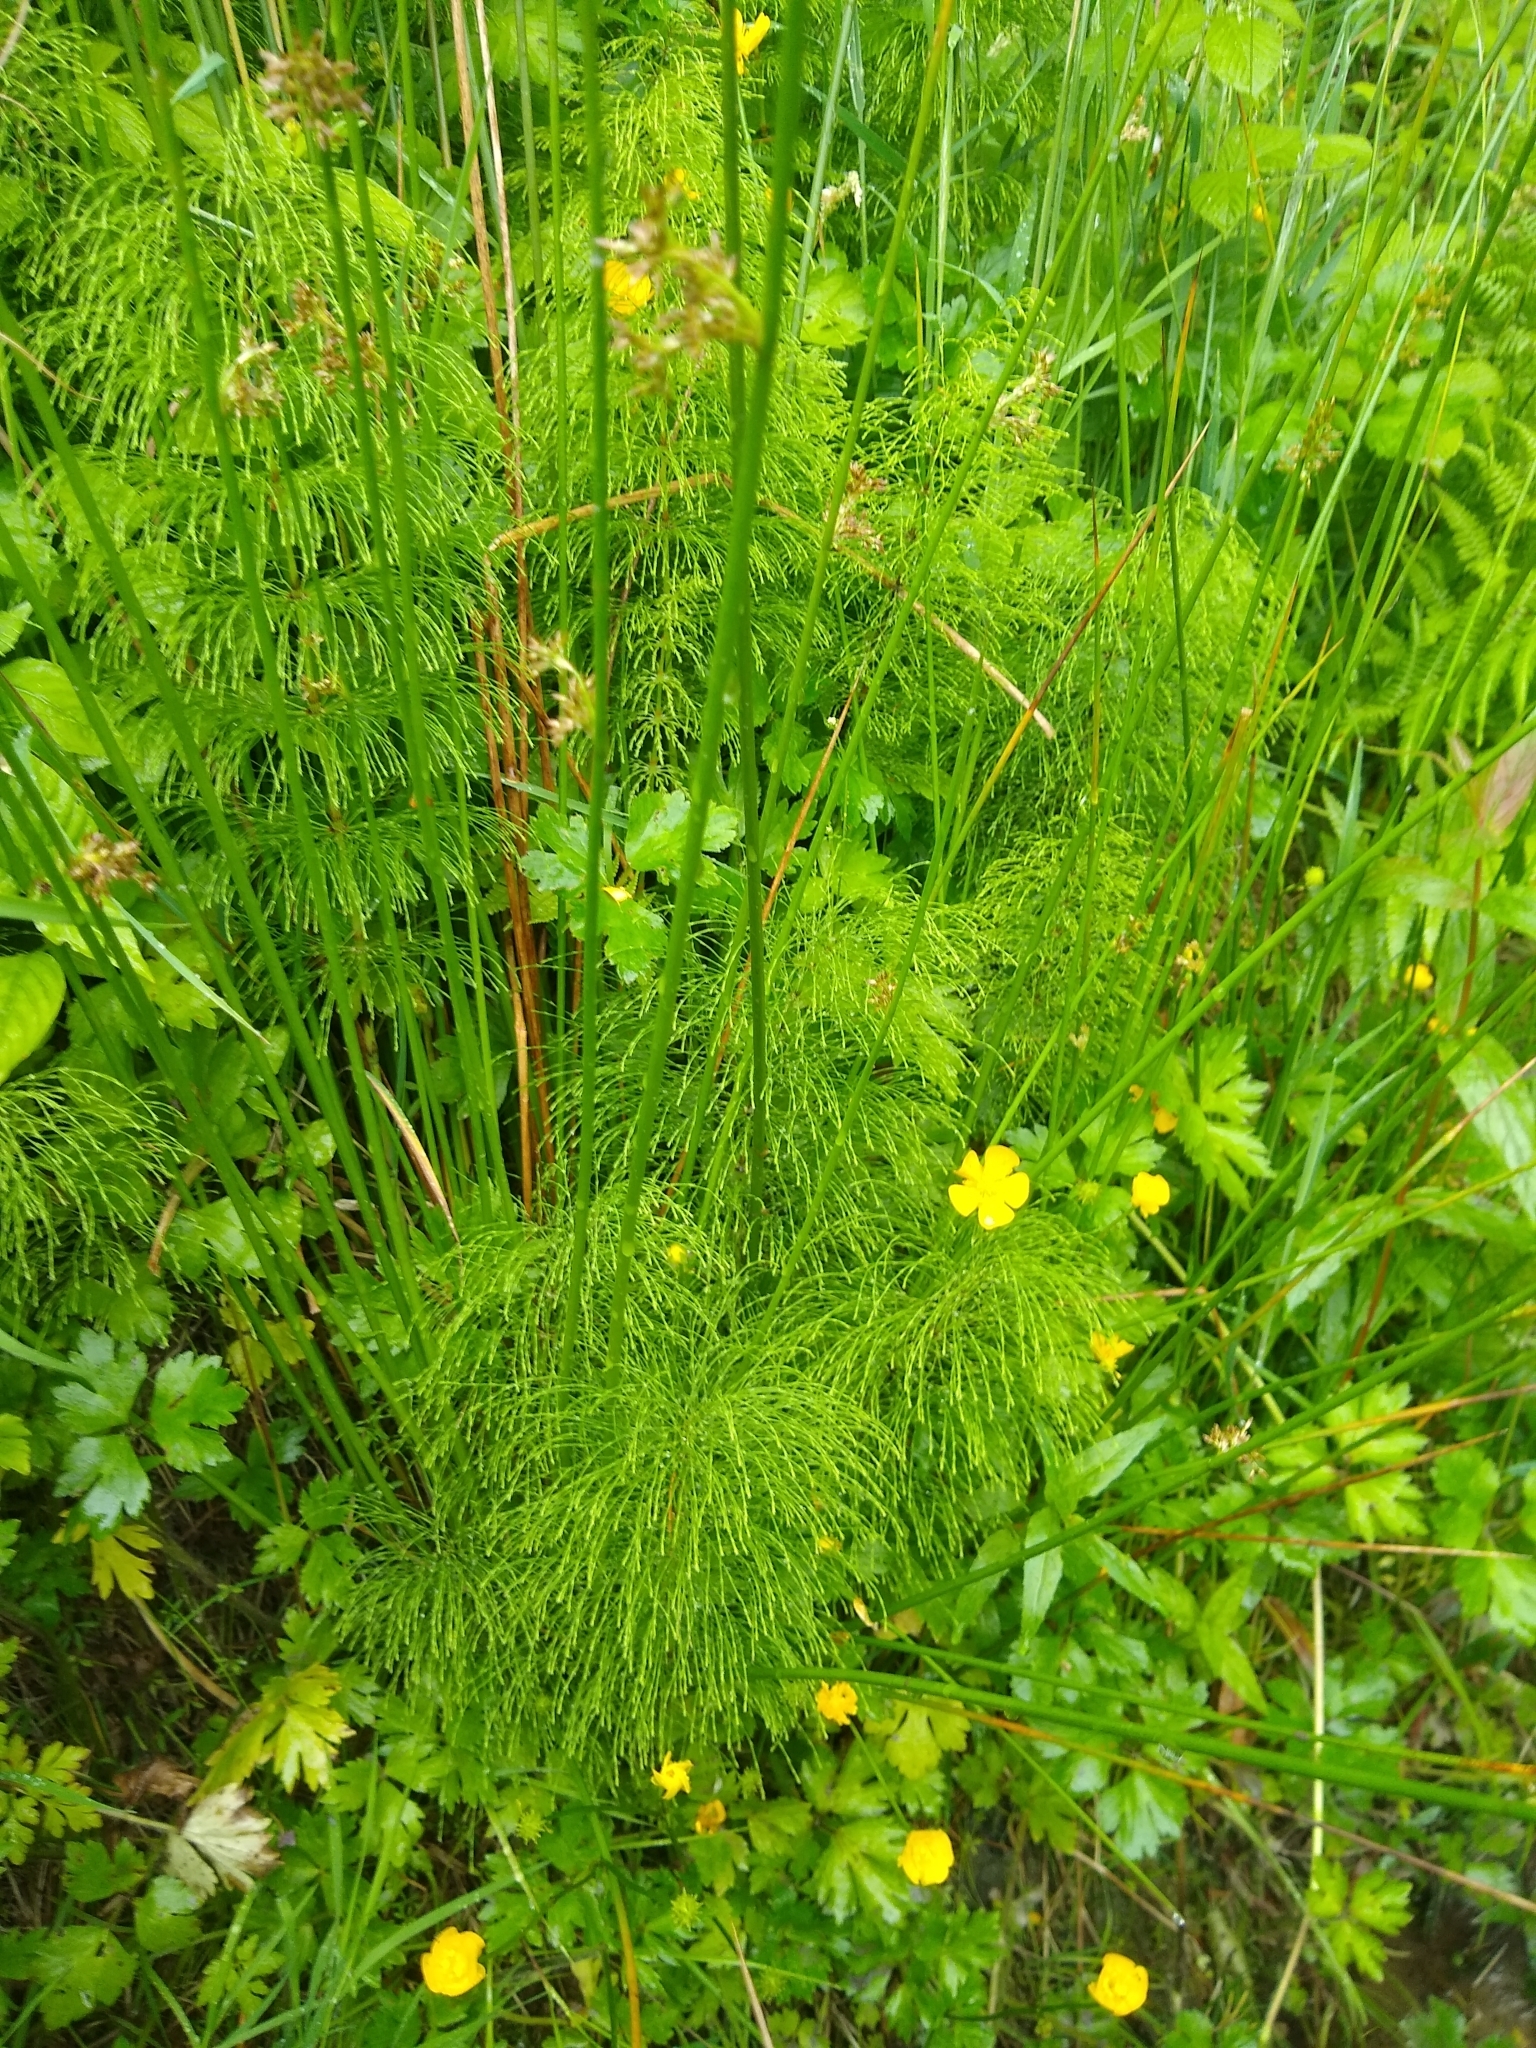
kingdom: Plantae
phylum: Tracheophyta
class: Polypodiopsida
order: Equisetales
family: Equisetaceae
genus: Equisetum
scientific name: Equisetum sylvaticum
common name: Wood horsetail
